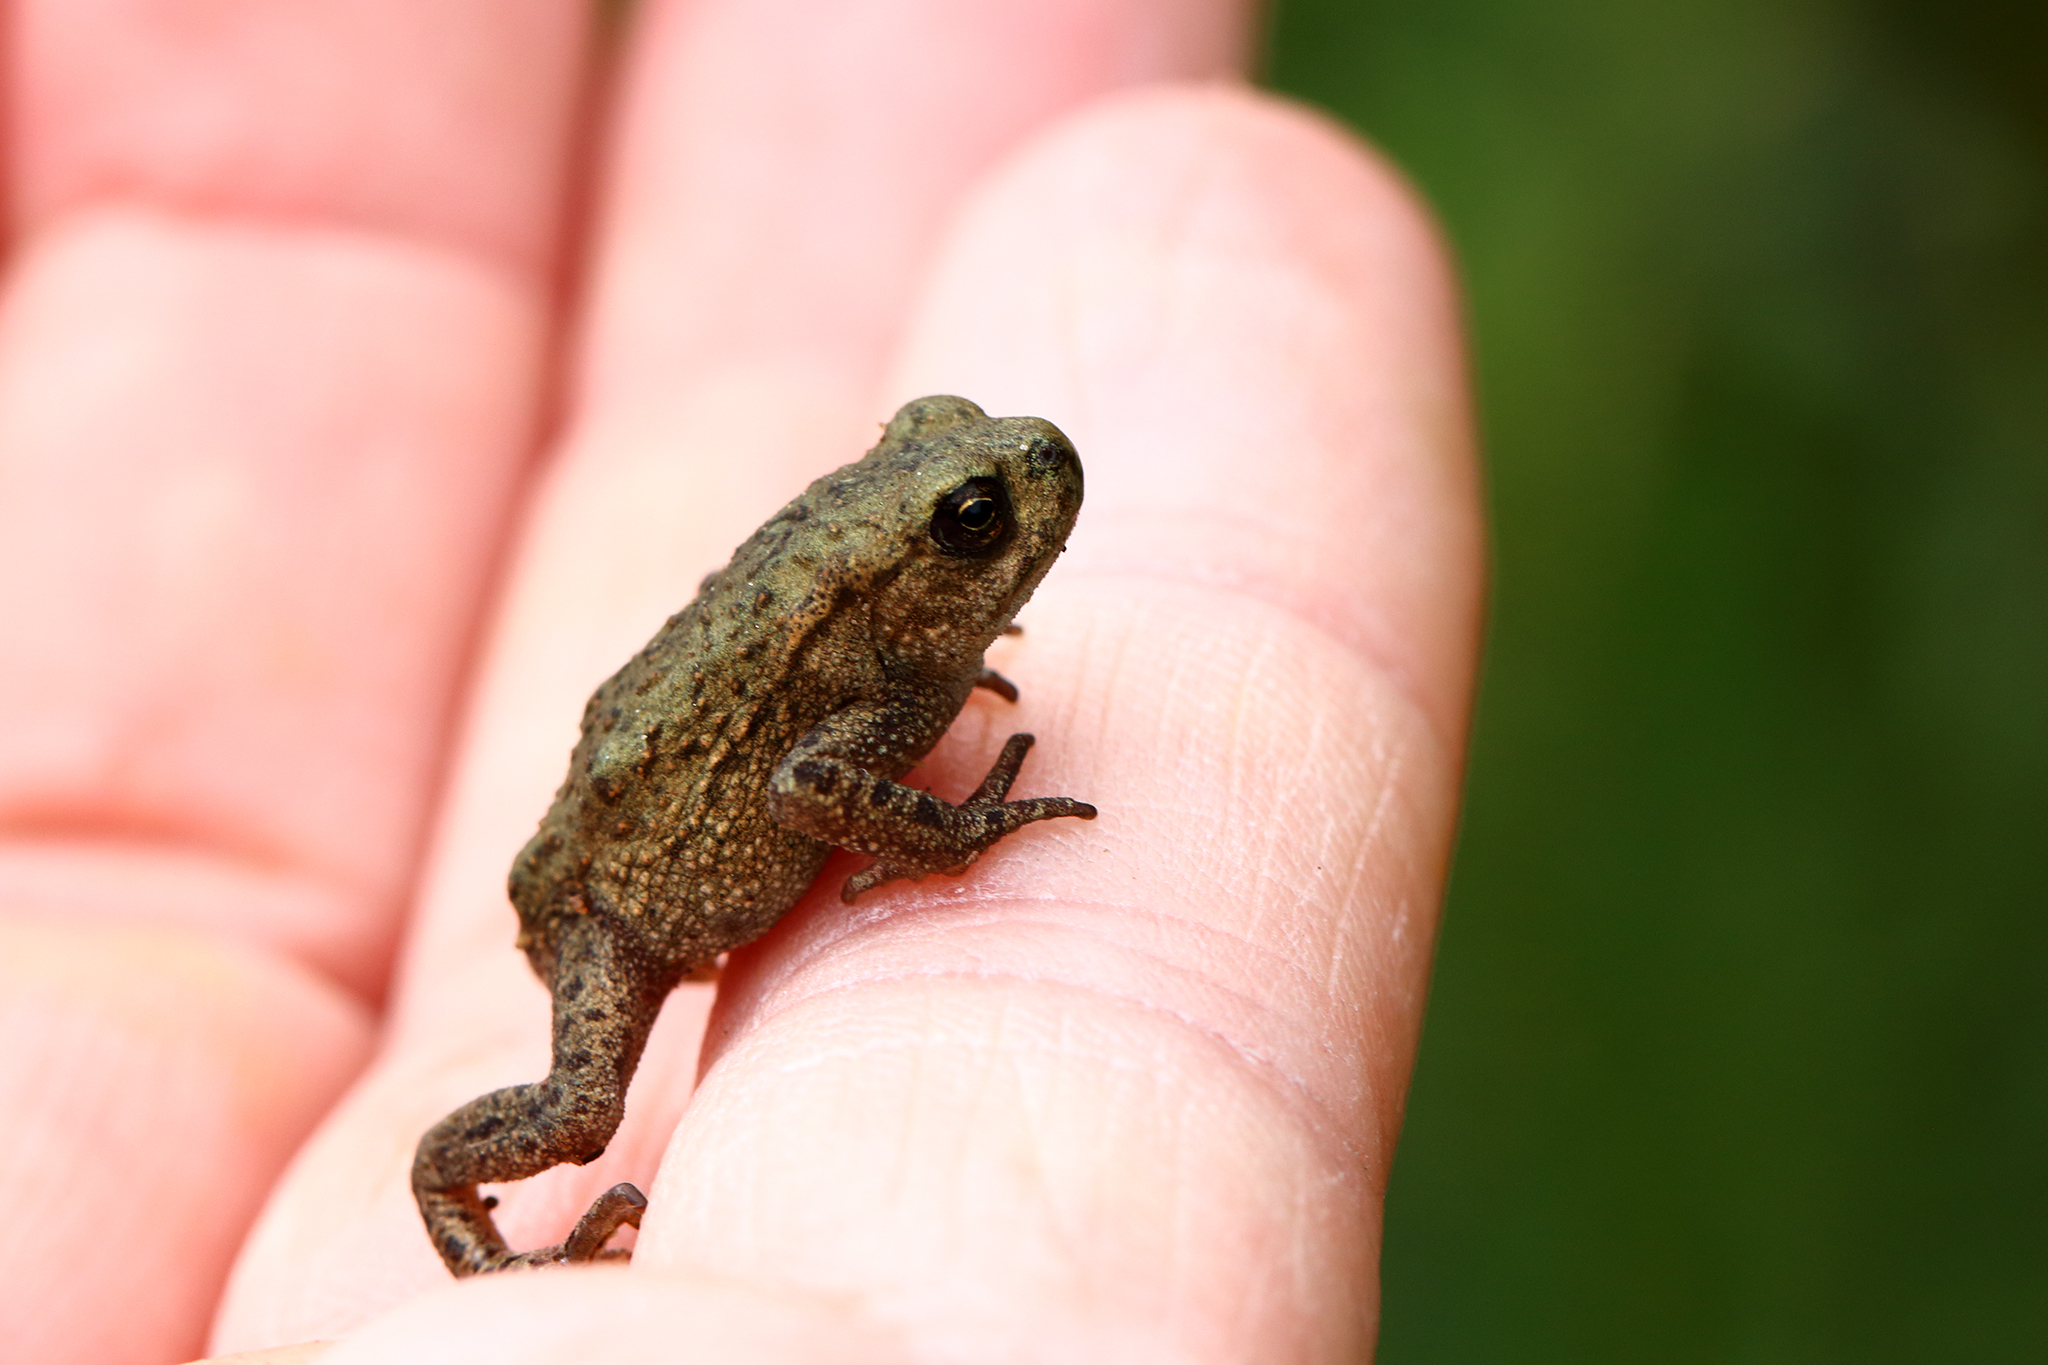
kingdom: Animalia
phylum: Chordata
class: Amphibia
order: Anura
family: Bufonidae
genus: Bufo
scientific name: Bufo bufo
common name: Common toad
